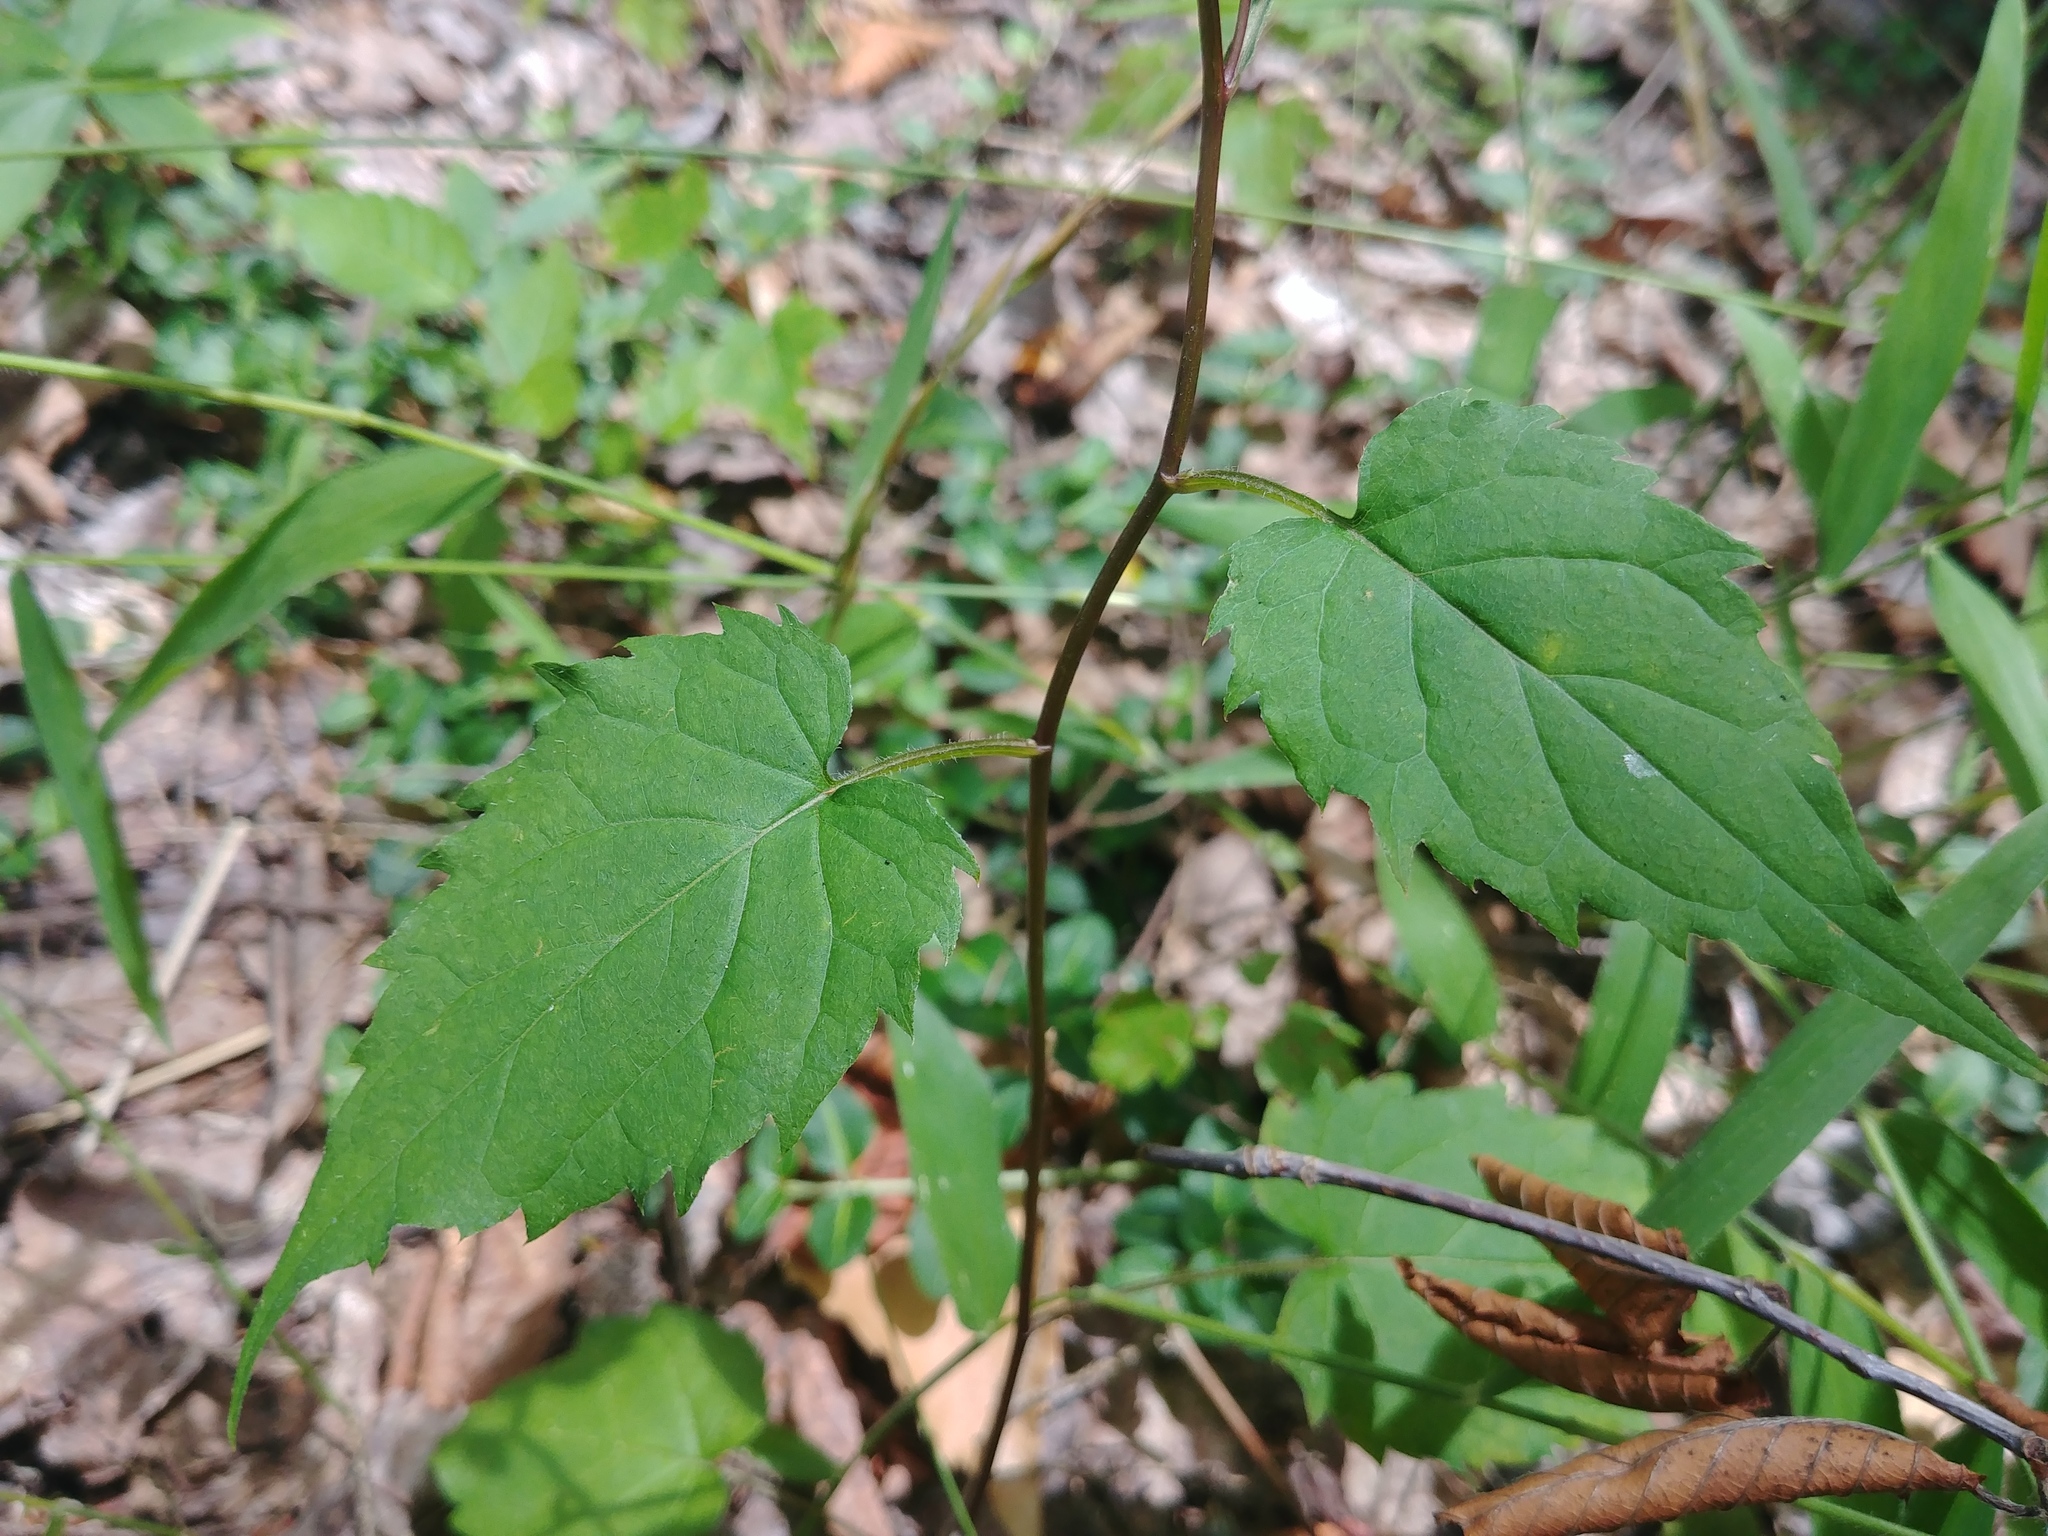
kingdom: Plantae
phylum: Tracheophyta
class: Magnoliopsida
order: Asterales
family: Asteraceae
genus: Eurybia
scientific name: Eurybia divaricata
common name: White wood aster
